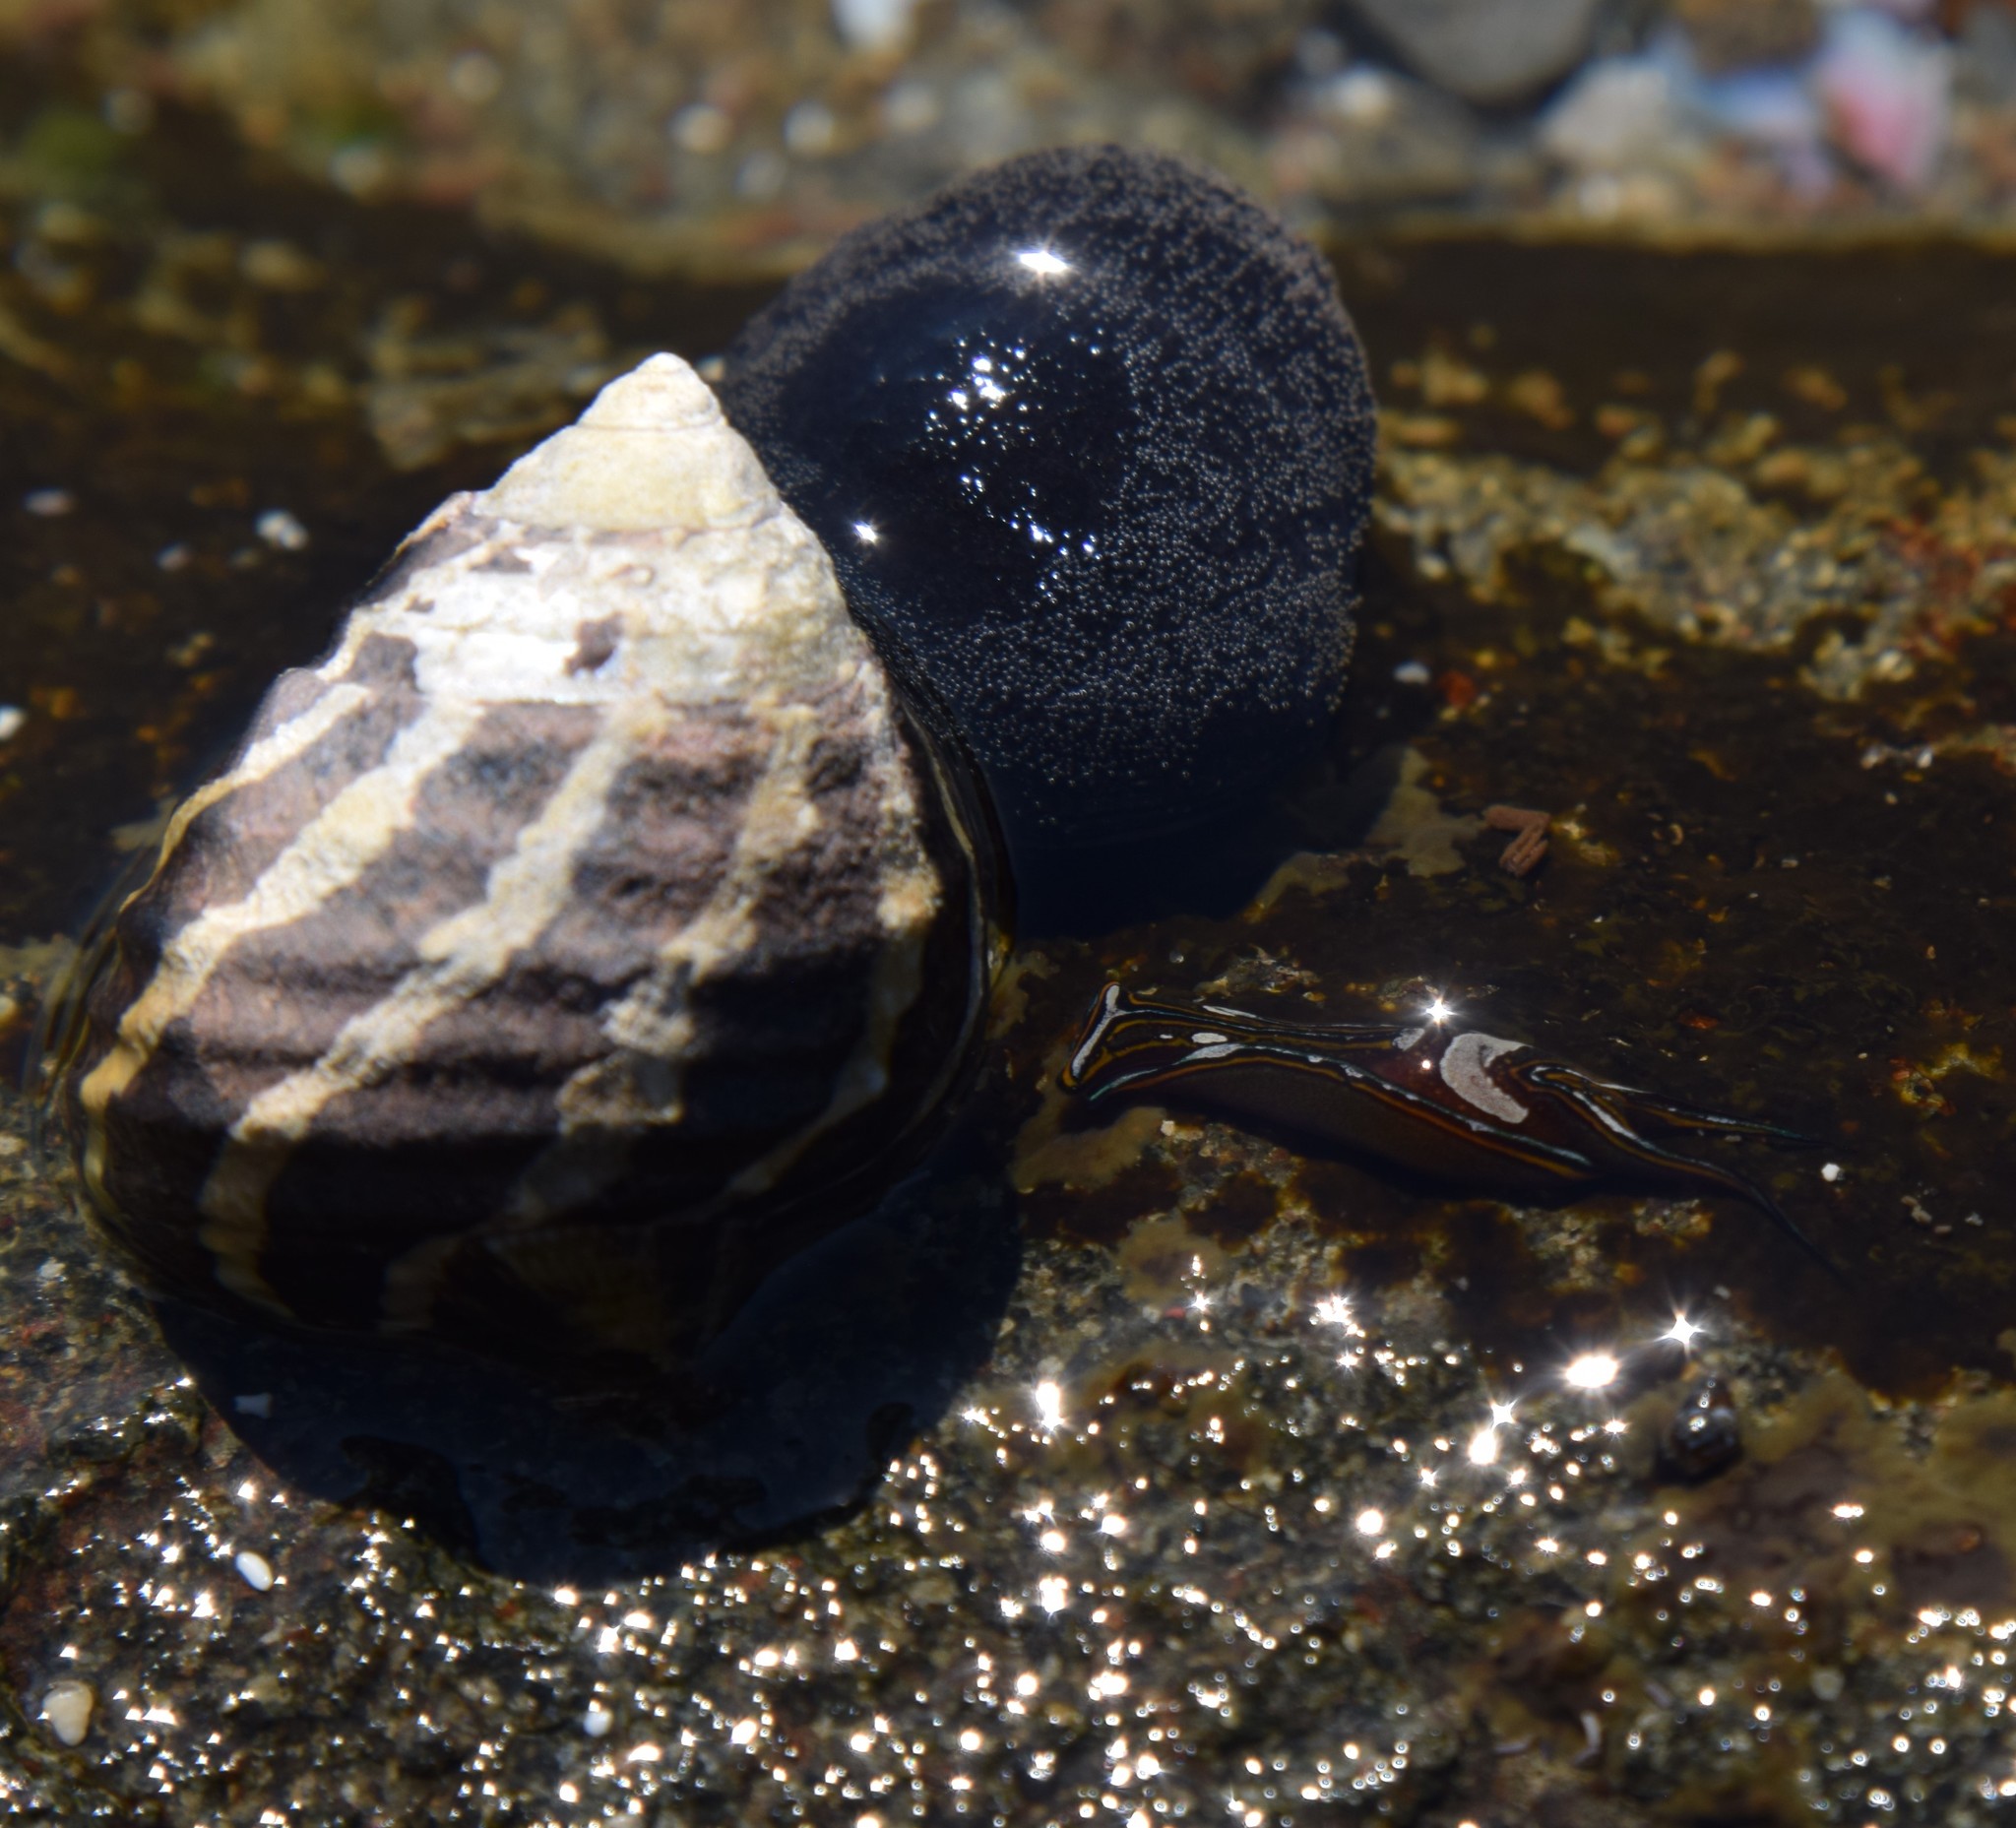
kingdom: Animalia
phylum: Mollusca
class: Gastropoda
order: Cephalaspidea
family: Aglajidae
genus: Chelidonura
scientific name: Chelidonura hirundinina
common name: Leech headshield slug
